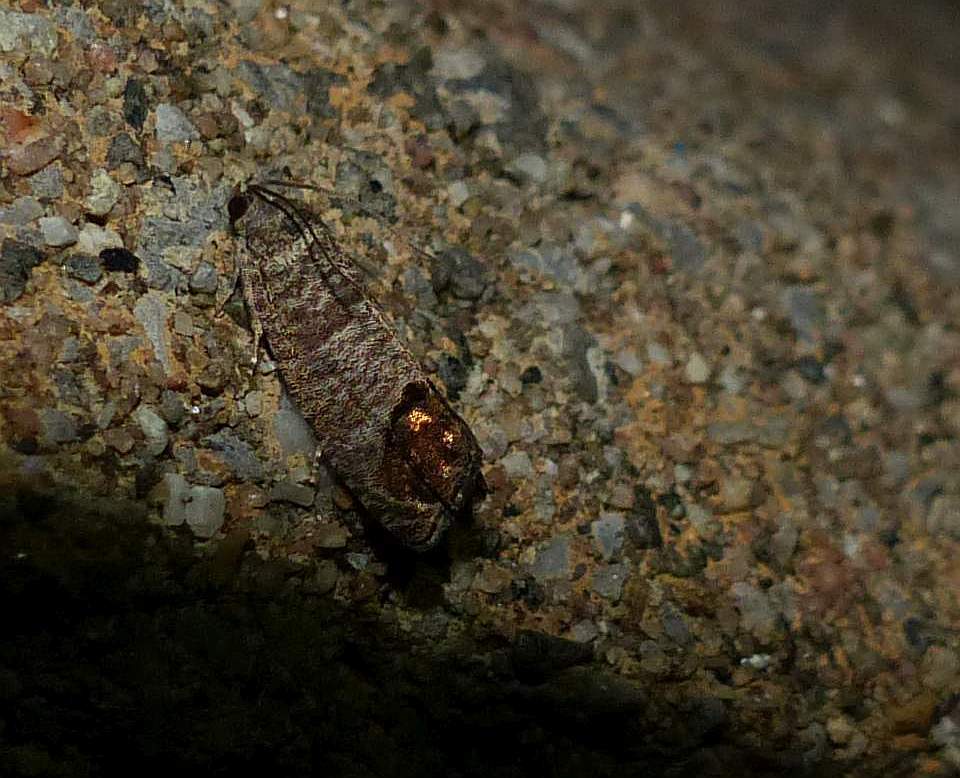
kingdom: Animalia
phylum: Arthropoda
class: Insecta
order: Lepidoptera
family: Tortricidae
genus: Cydia
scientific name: Cydia pomonella
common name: Codling moth
